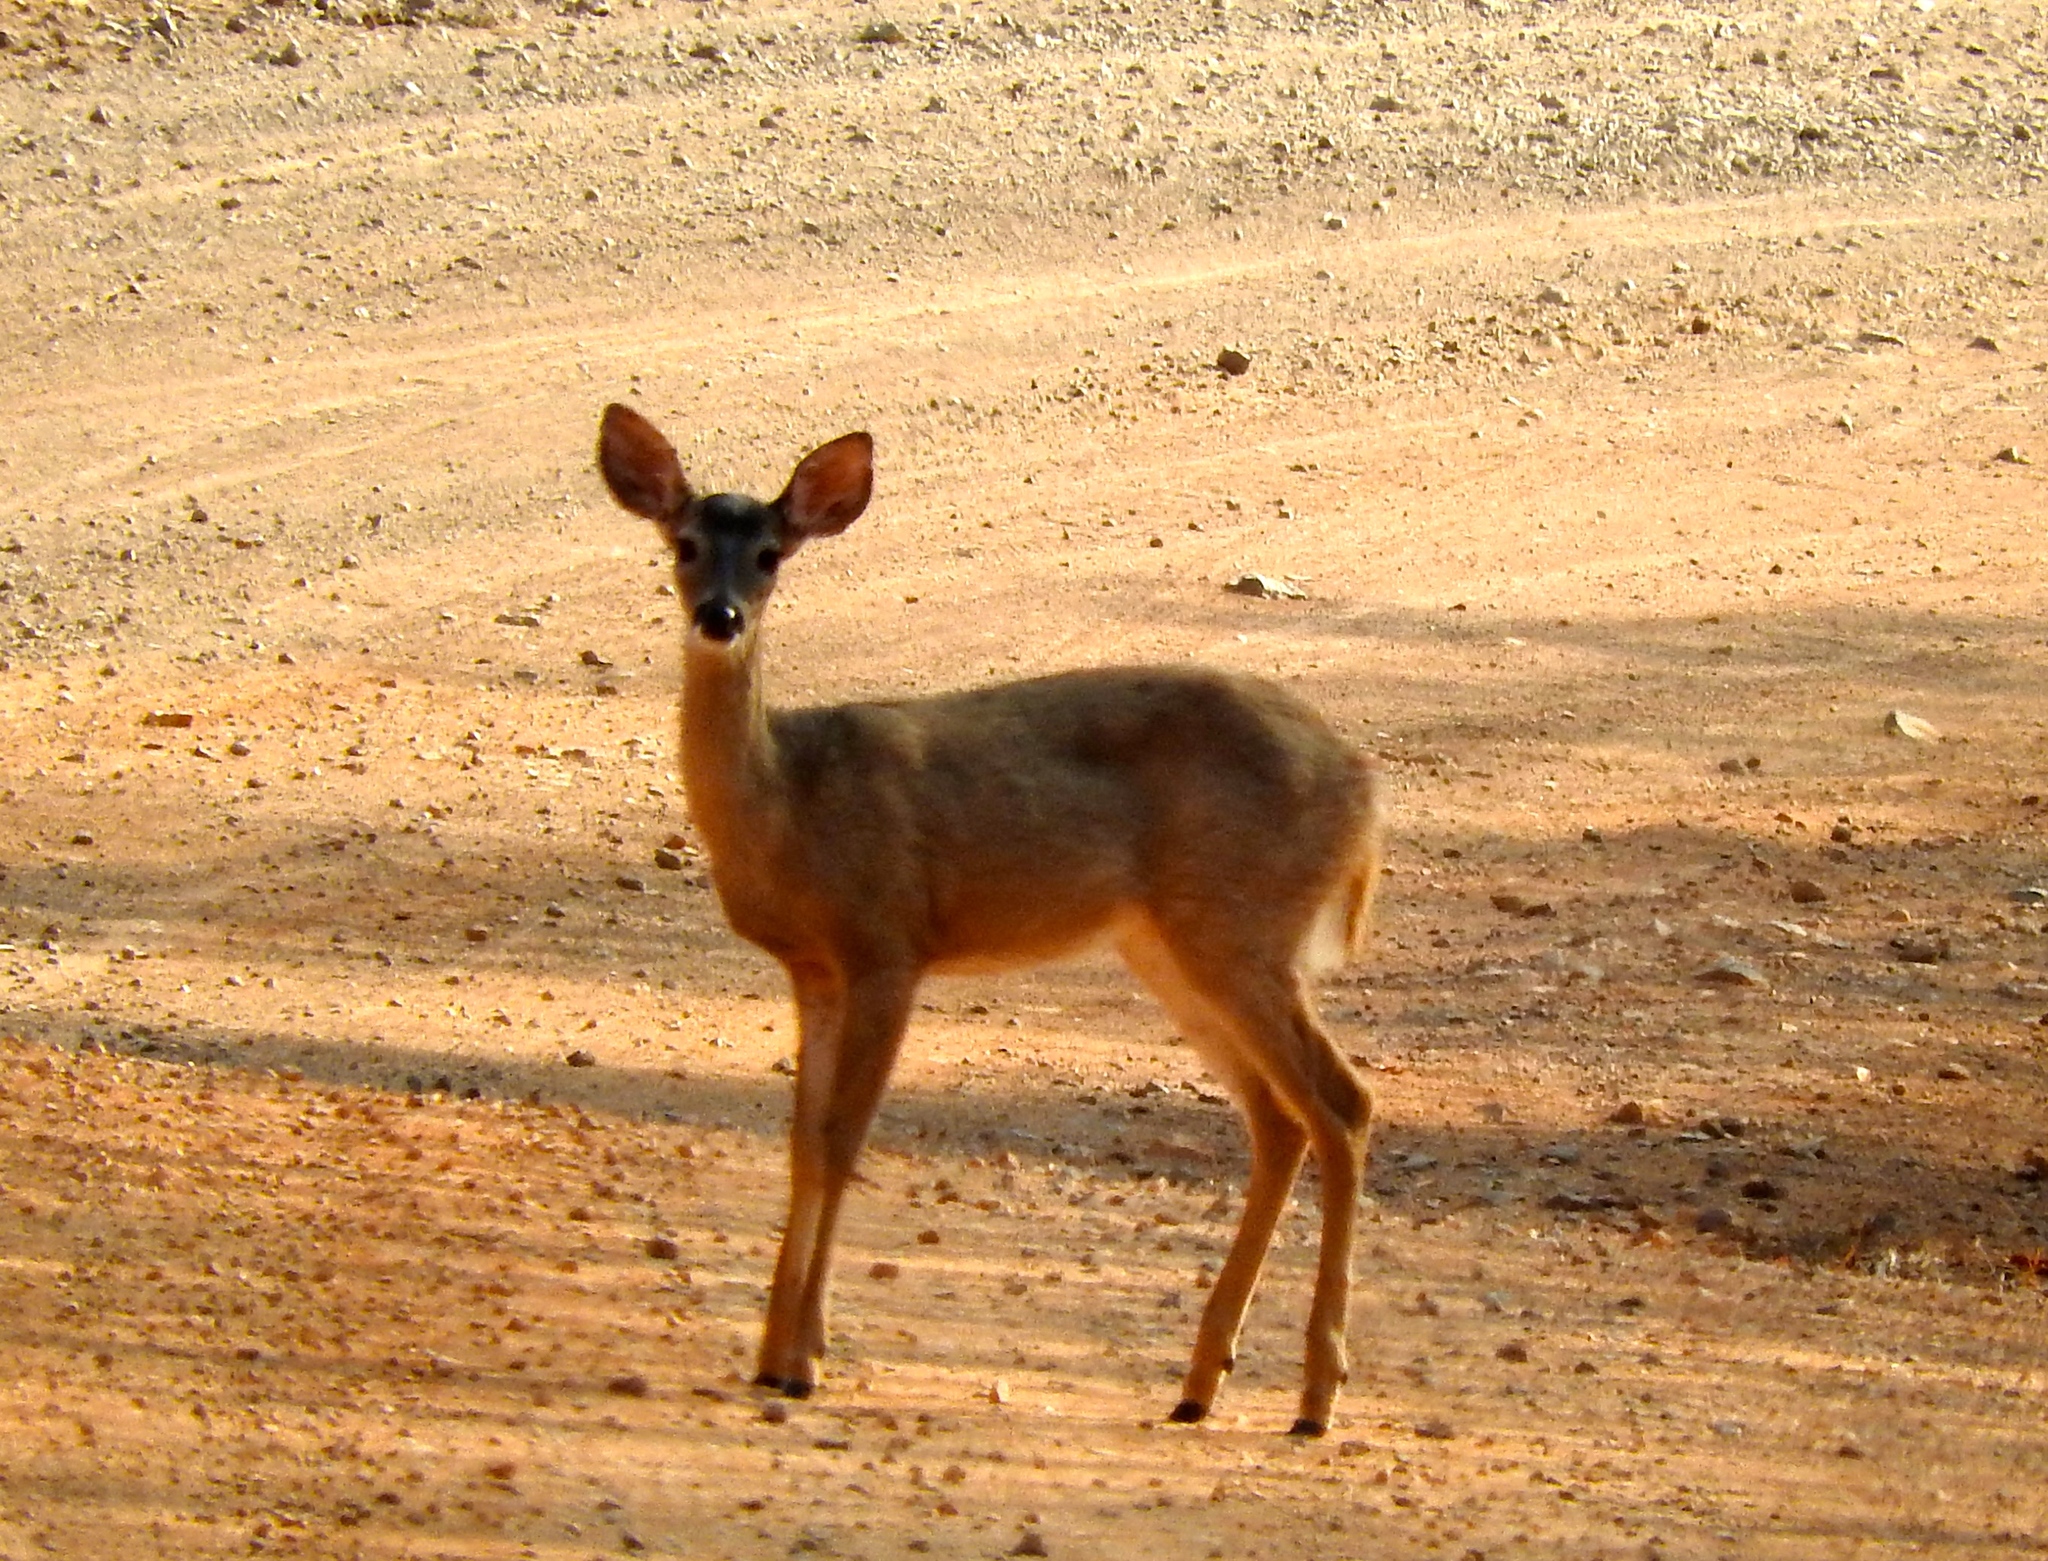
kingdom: Animalia
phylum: Chordata
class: Mammalia
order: Artiodactyla
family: Cervidae
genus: Odocoileus
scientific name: Odocoileus virginianus
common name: White-tailed deer
